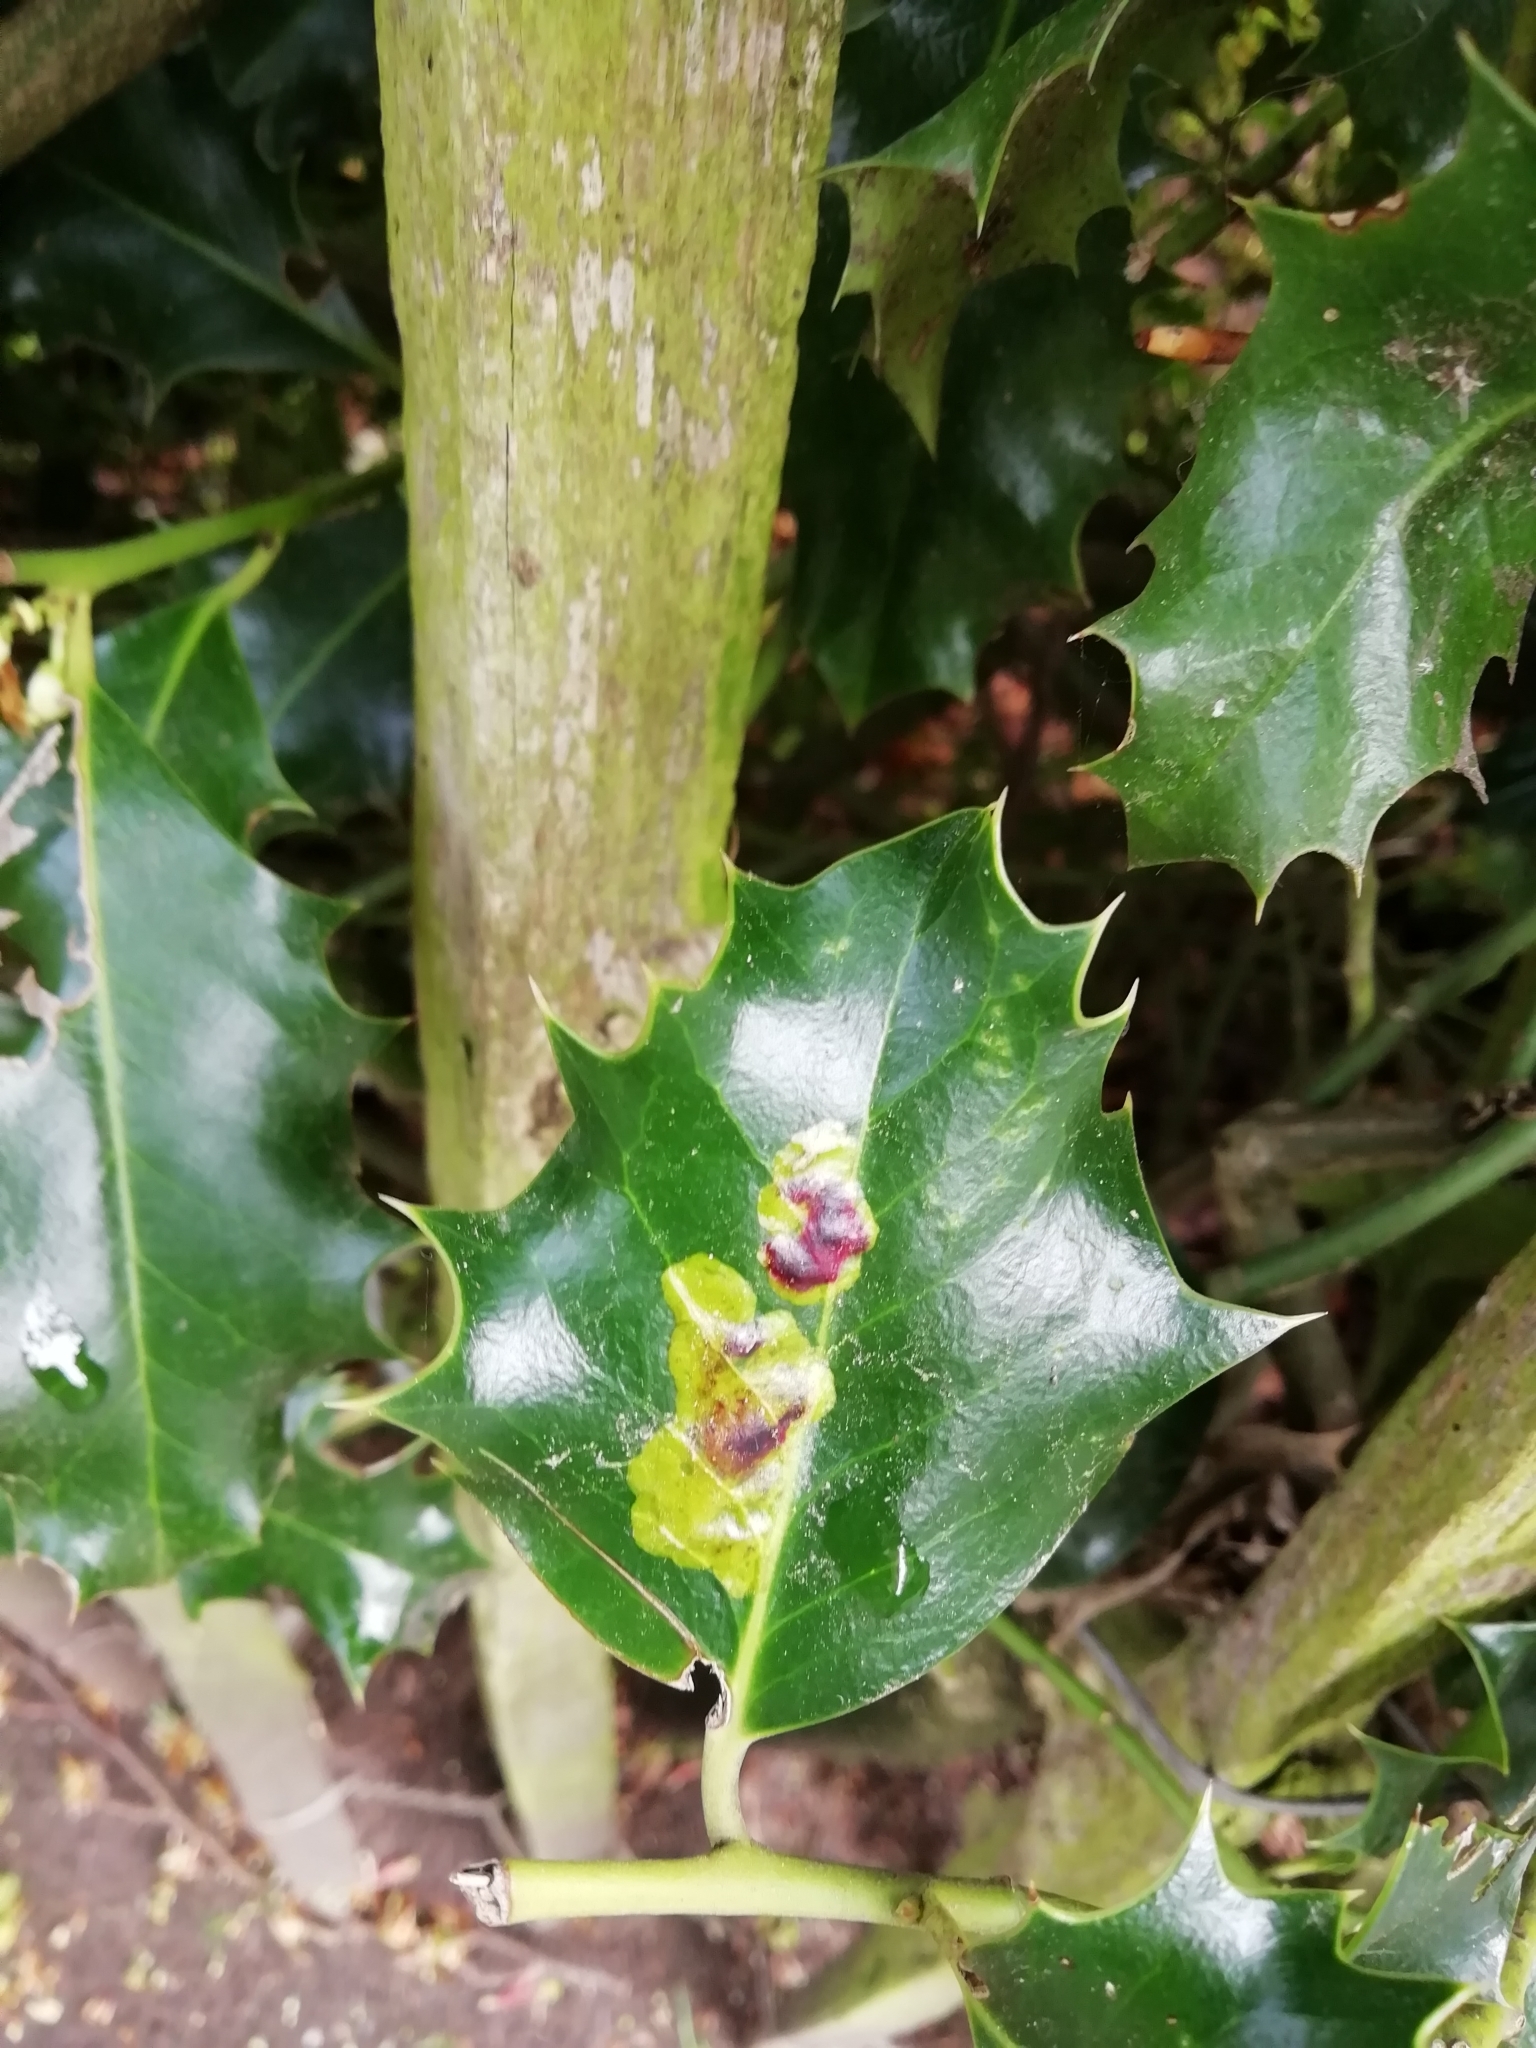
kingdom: Animalia
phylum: Arthropoda
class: Insecta
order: Diptera
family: Agromyzidae
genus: Phytomyza
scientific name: Phytomyza ilicis
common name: Holly leafminer
